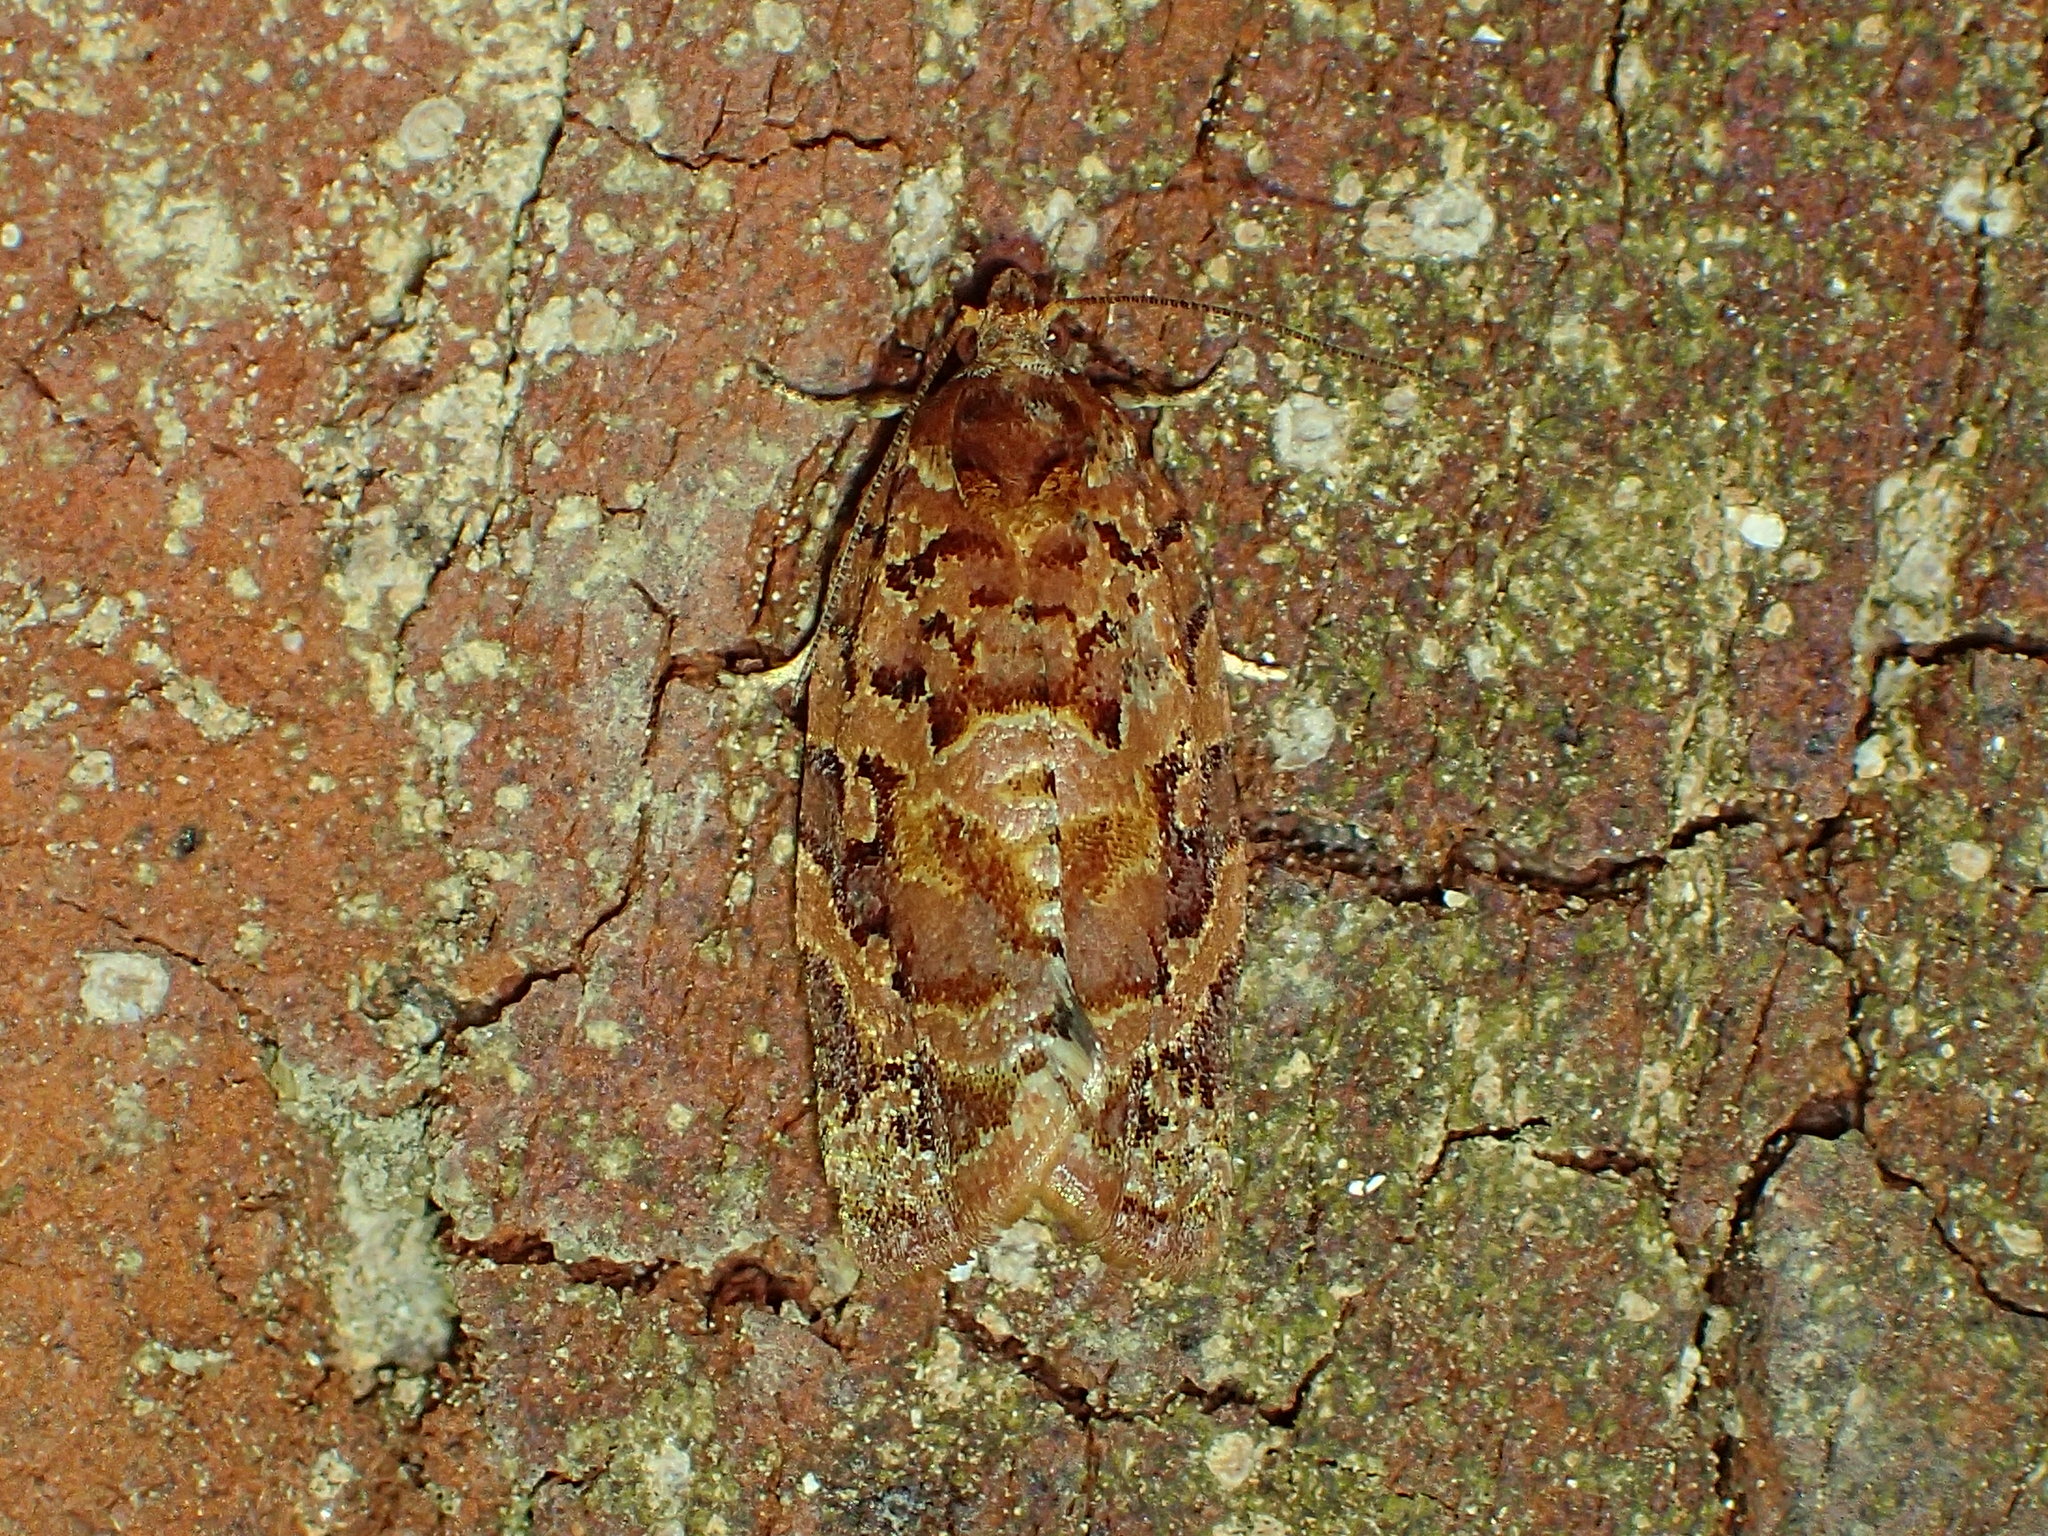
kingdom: Animalia
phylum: Arthropoda
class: Insecta
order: Lepidoptera
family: Tortricidae
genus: Argyrotaenia
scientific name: Argyrotaenia floridana
